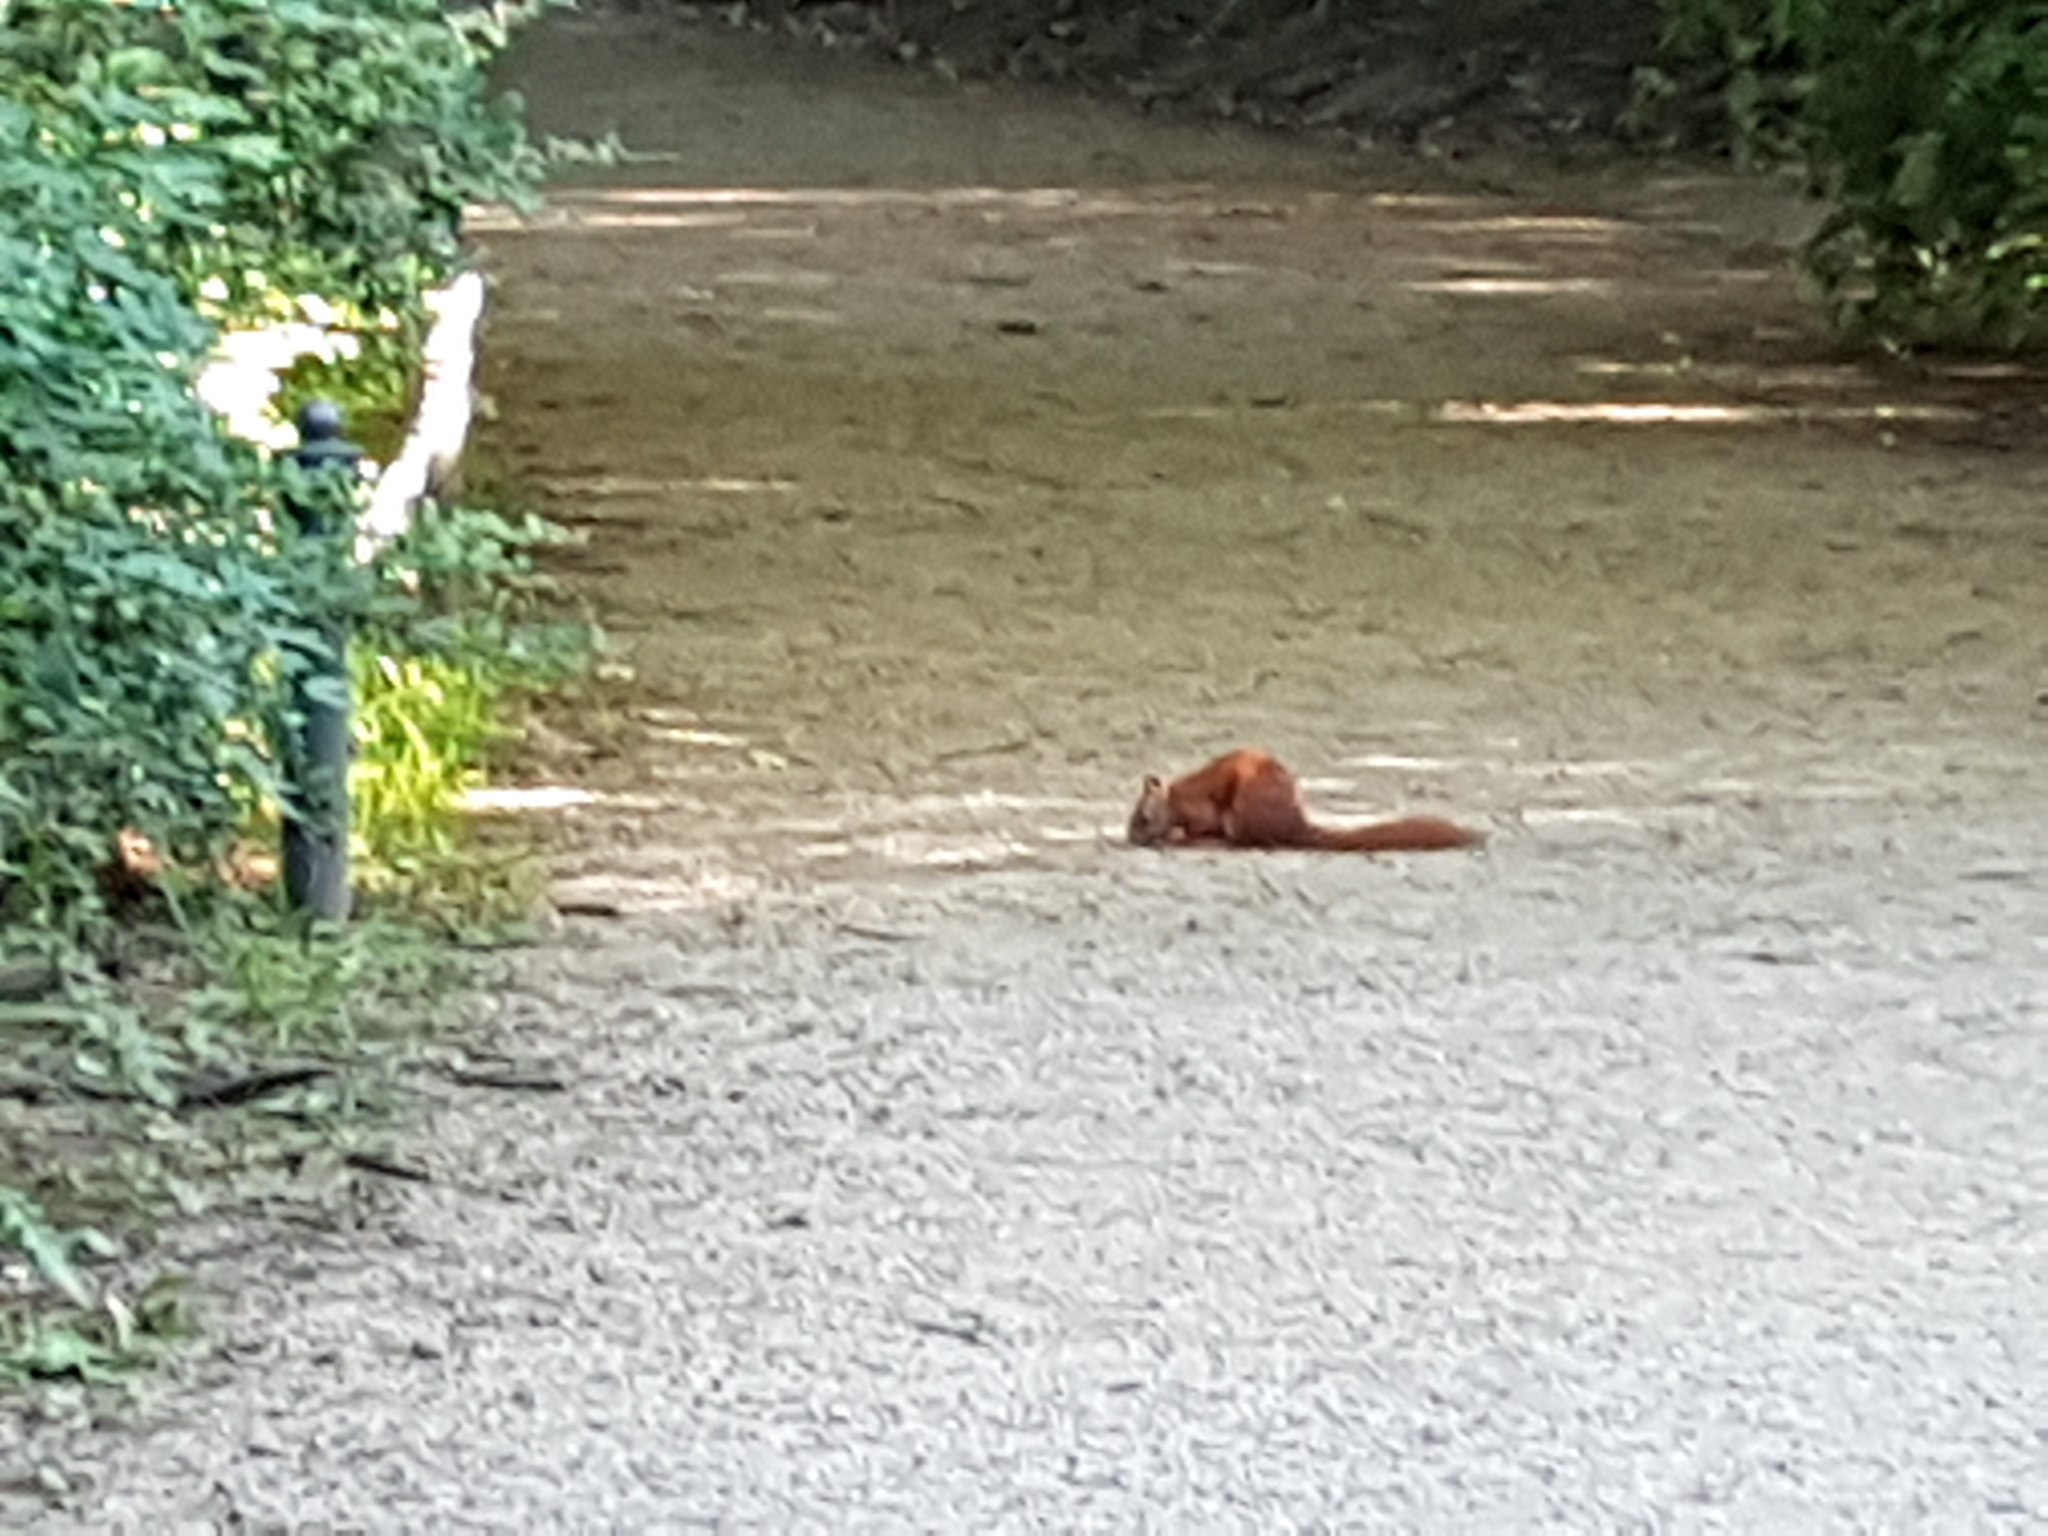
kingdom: Animalia
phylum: Chordata
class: Mammalia
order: Rodentia
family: Sciuridae
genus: Sciurus
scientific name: Sciurus vulgaris
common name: Eurasian red squirrel
